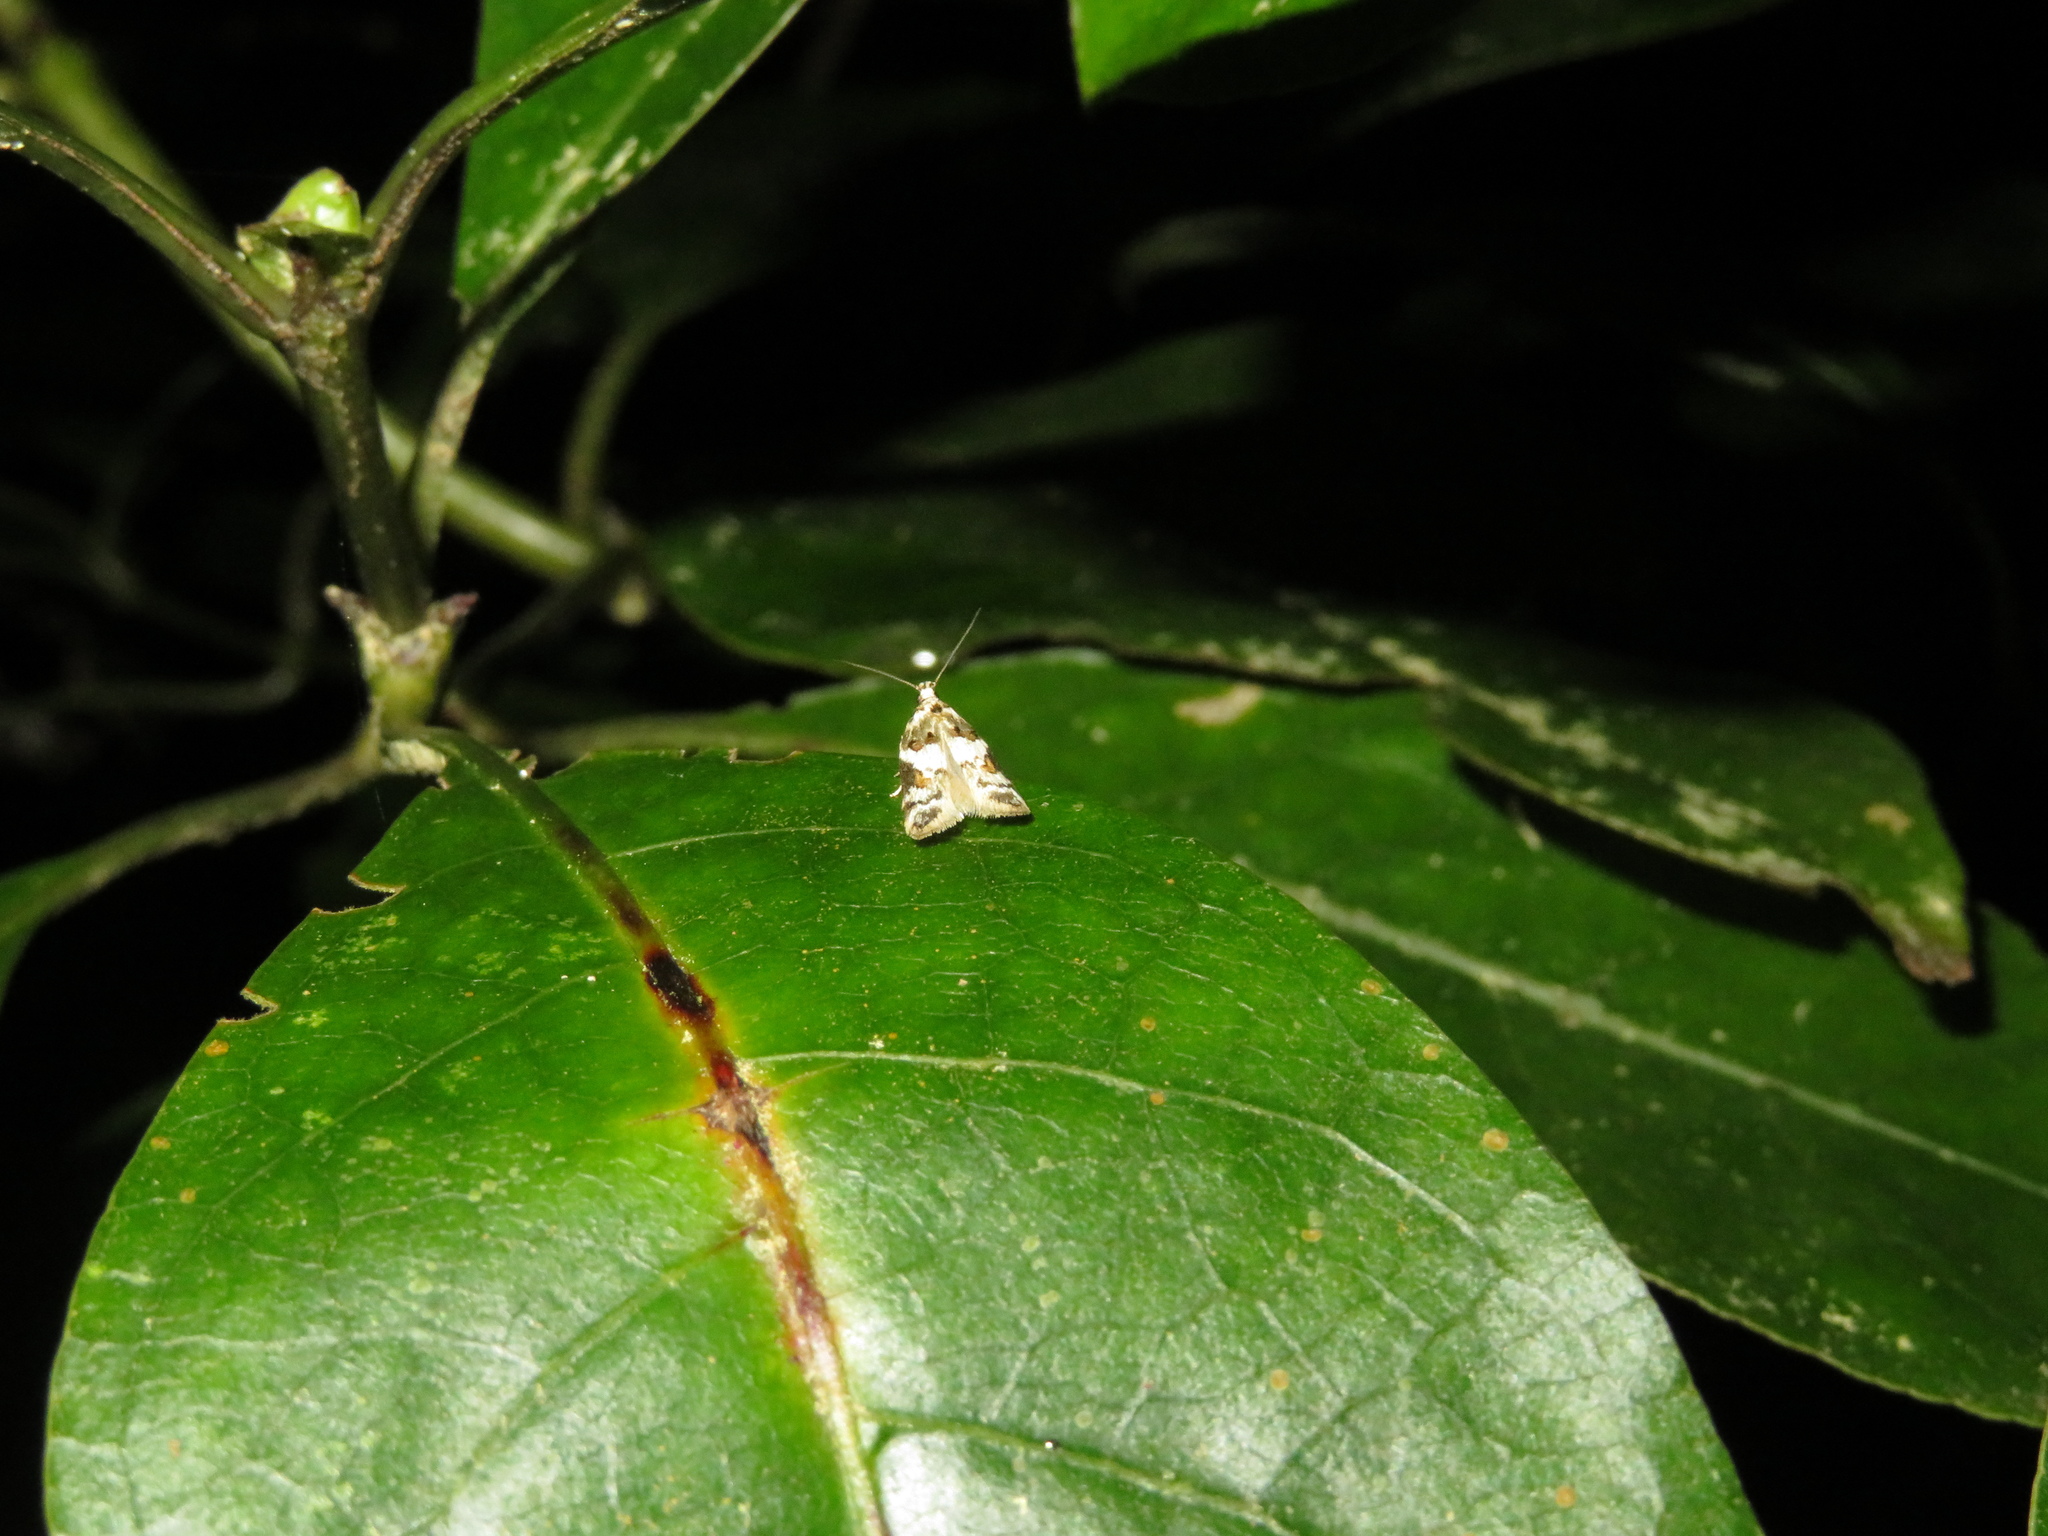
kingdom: Animalia
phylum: Arthropoda
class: Insecta
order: Lepidoptera
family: Oecophoridae
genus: Trachypepla
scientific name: Trachypepla galaxias
